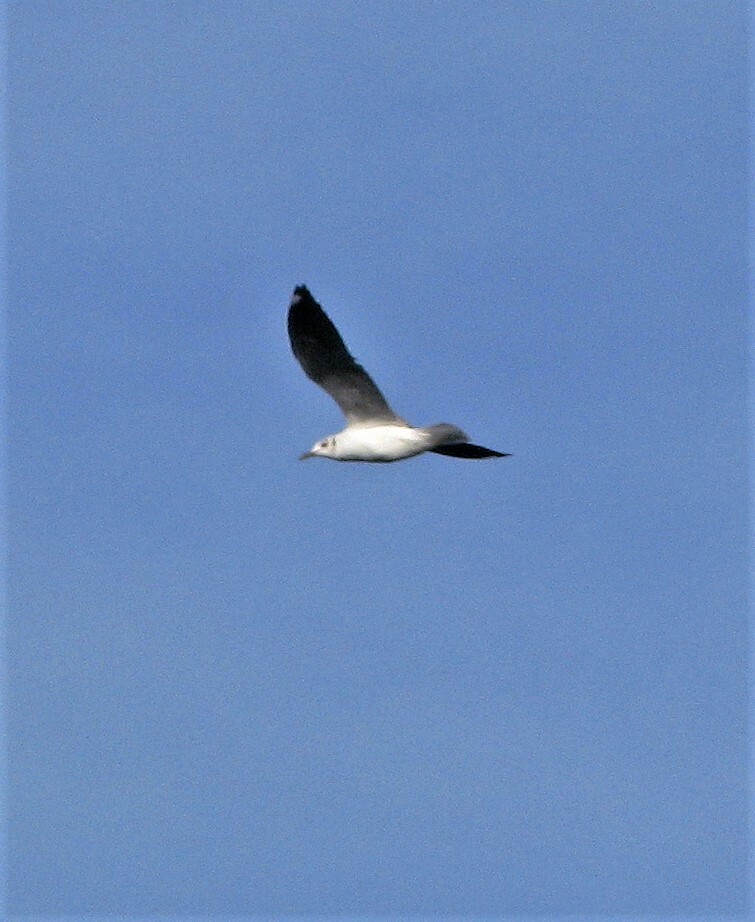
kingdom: Animalia
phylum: Chordata
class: Aves
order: Charadriiformes
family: Laridae
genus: Chroicocephalus
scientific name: Chroicocephalus maculipennis
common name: Brown-hooded gull
